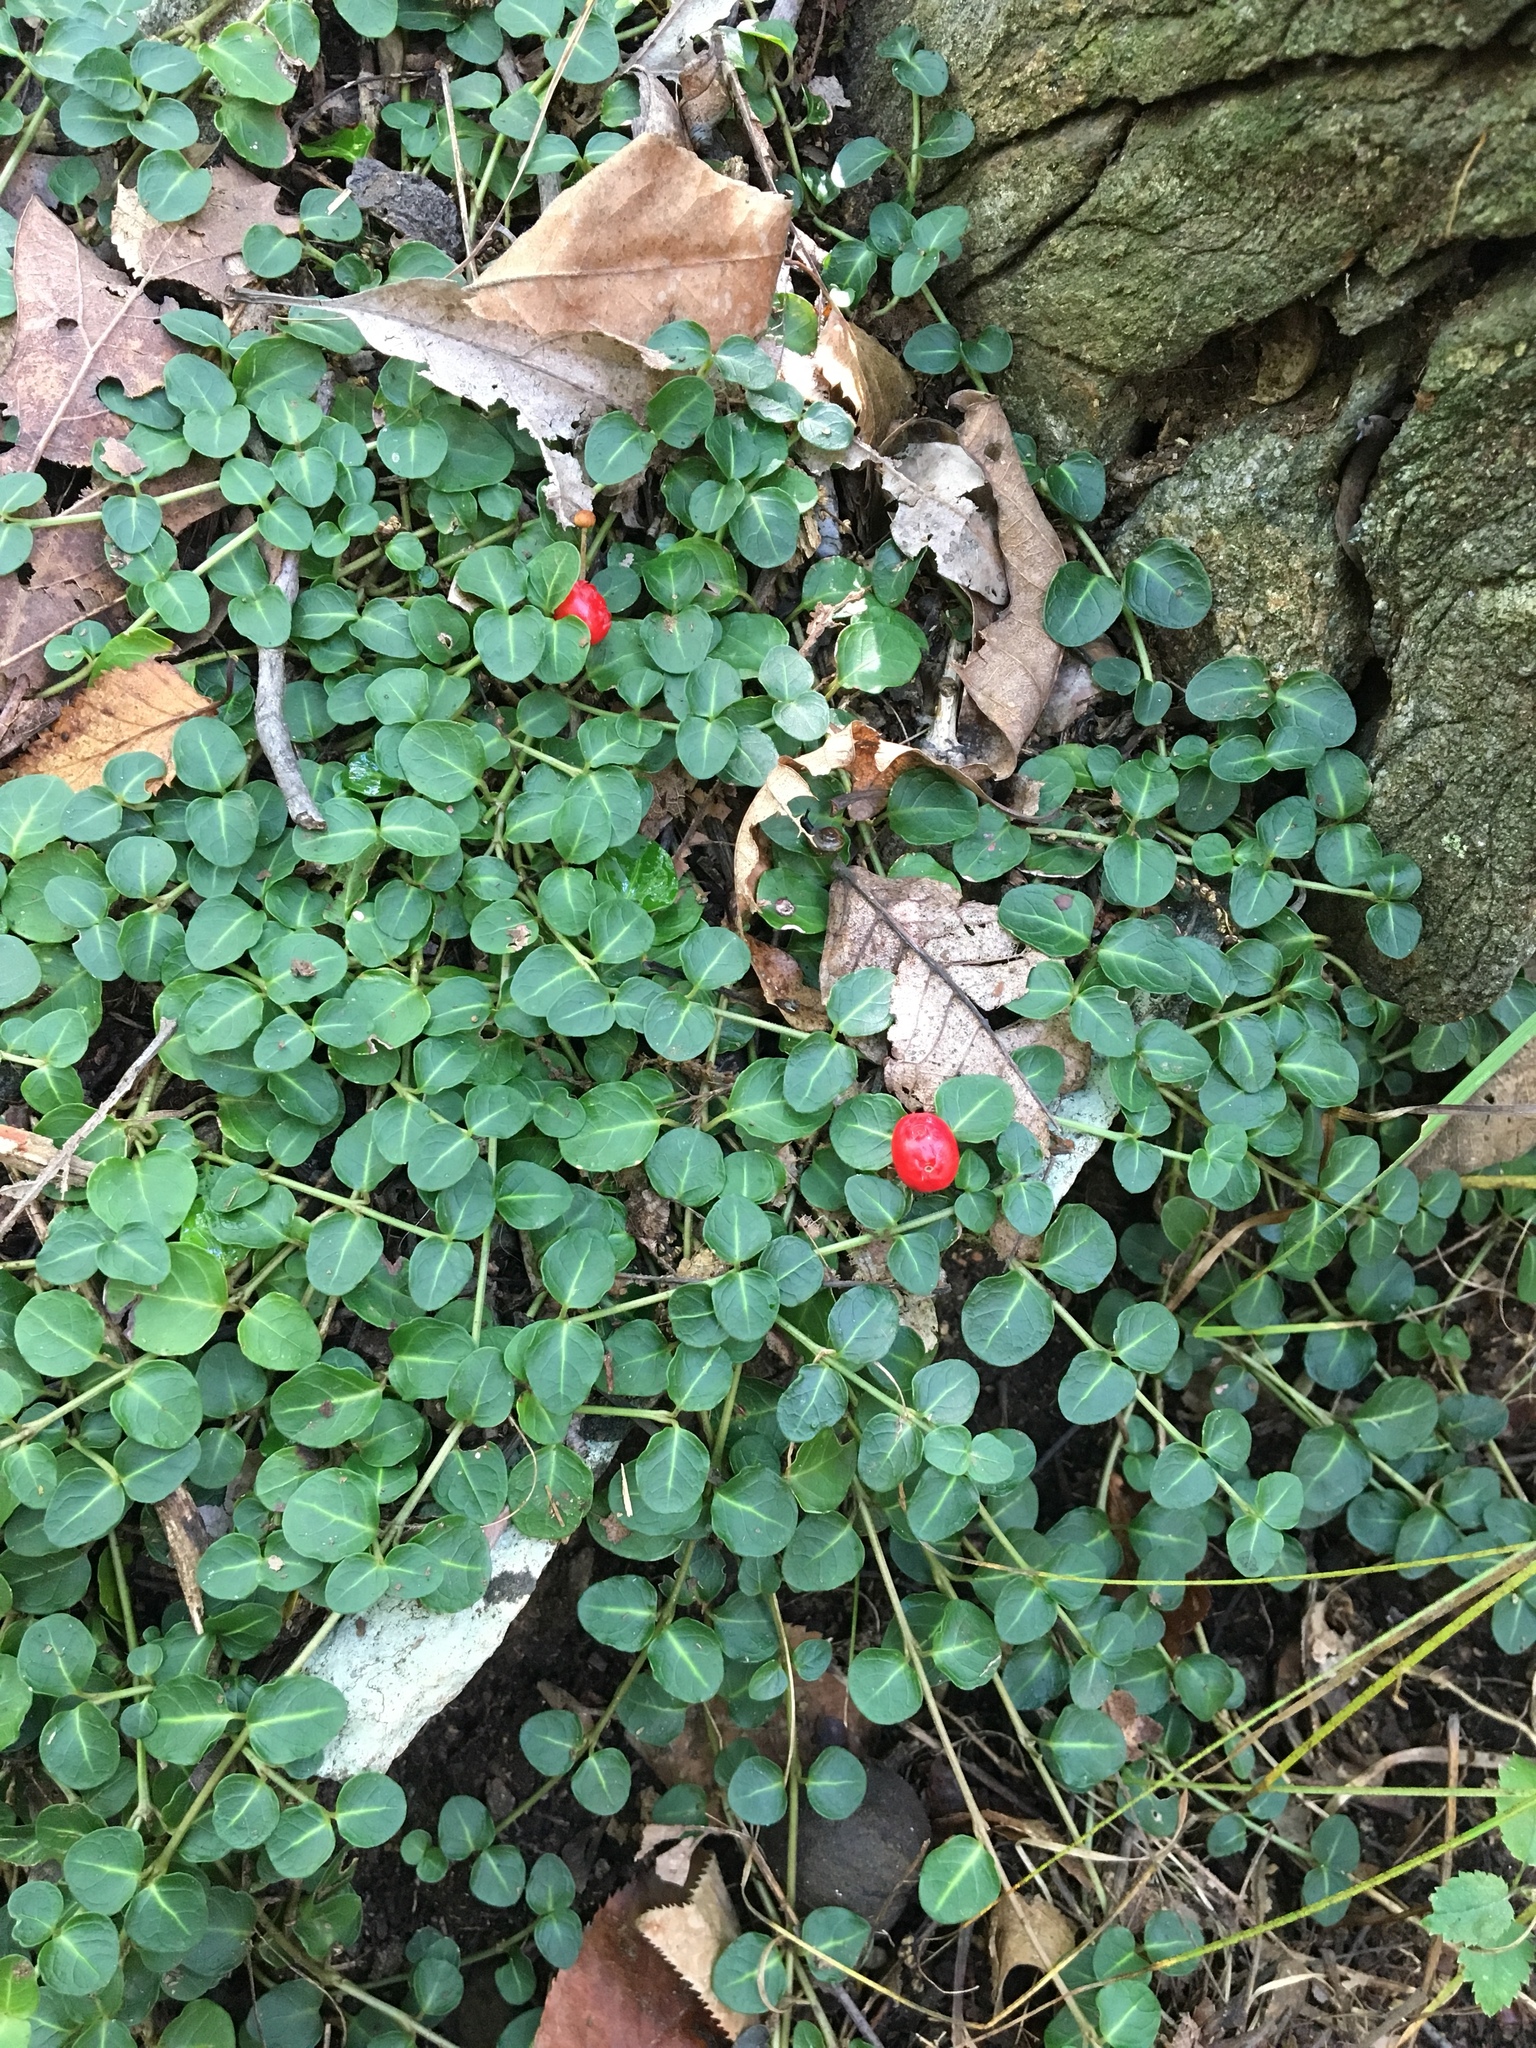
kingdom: Plantae
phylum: Tracheophyta
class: Magnoliopsida
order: Gentianales
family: Rubiaceae
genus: Mitchella
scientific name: Mitchella repens
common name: Partridge-berry
